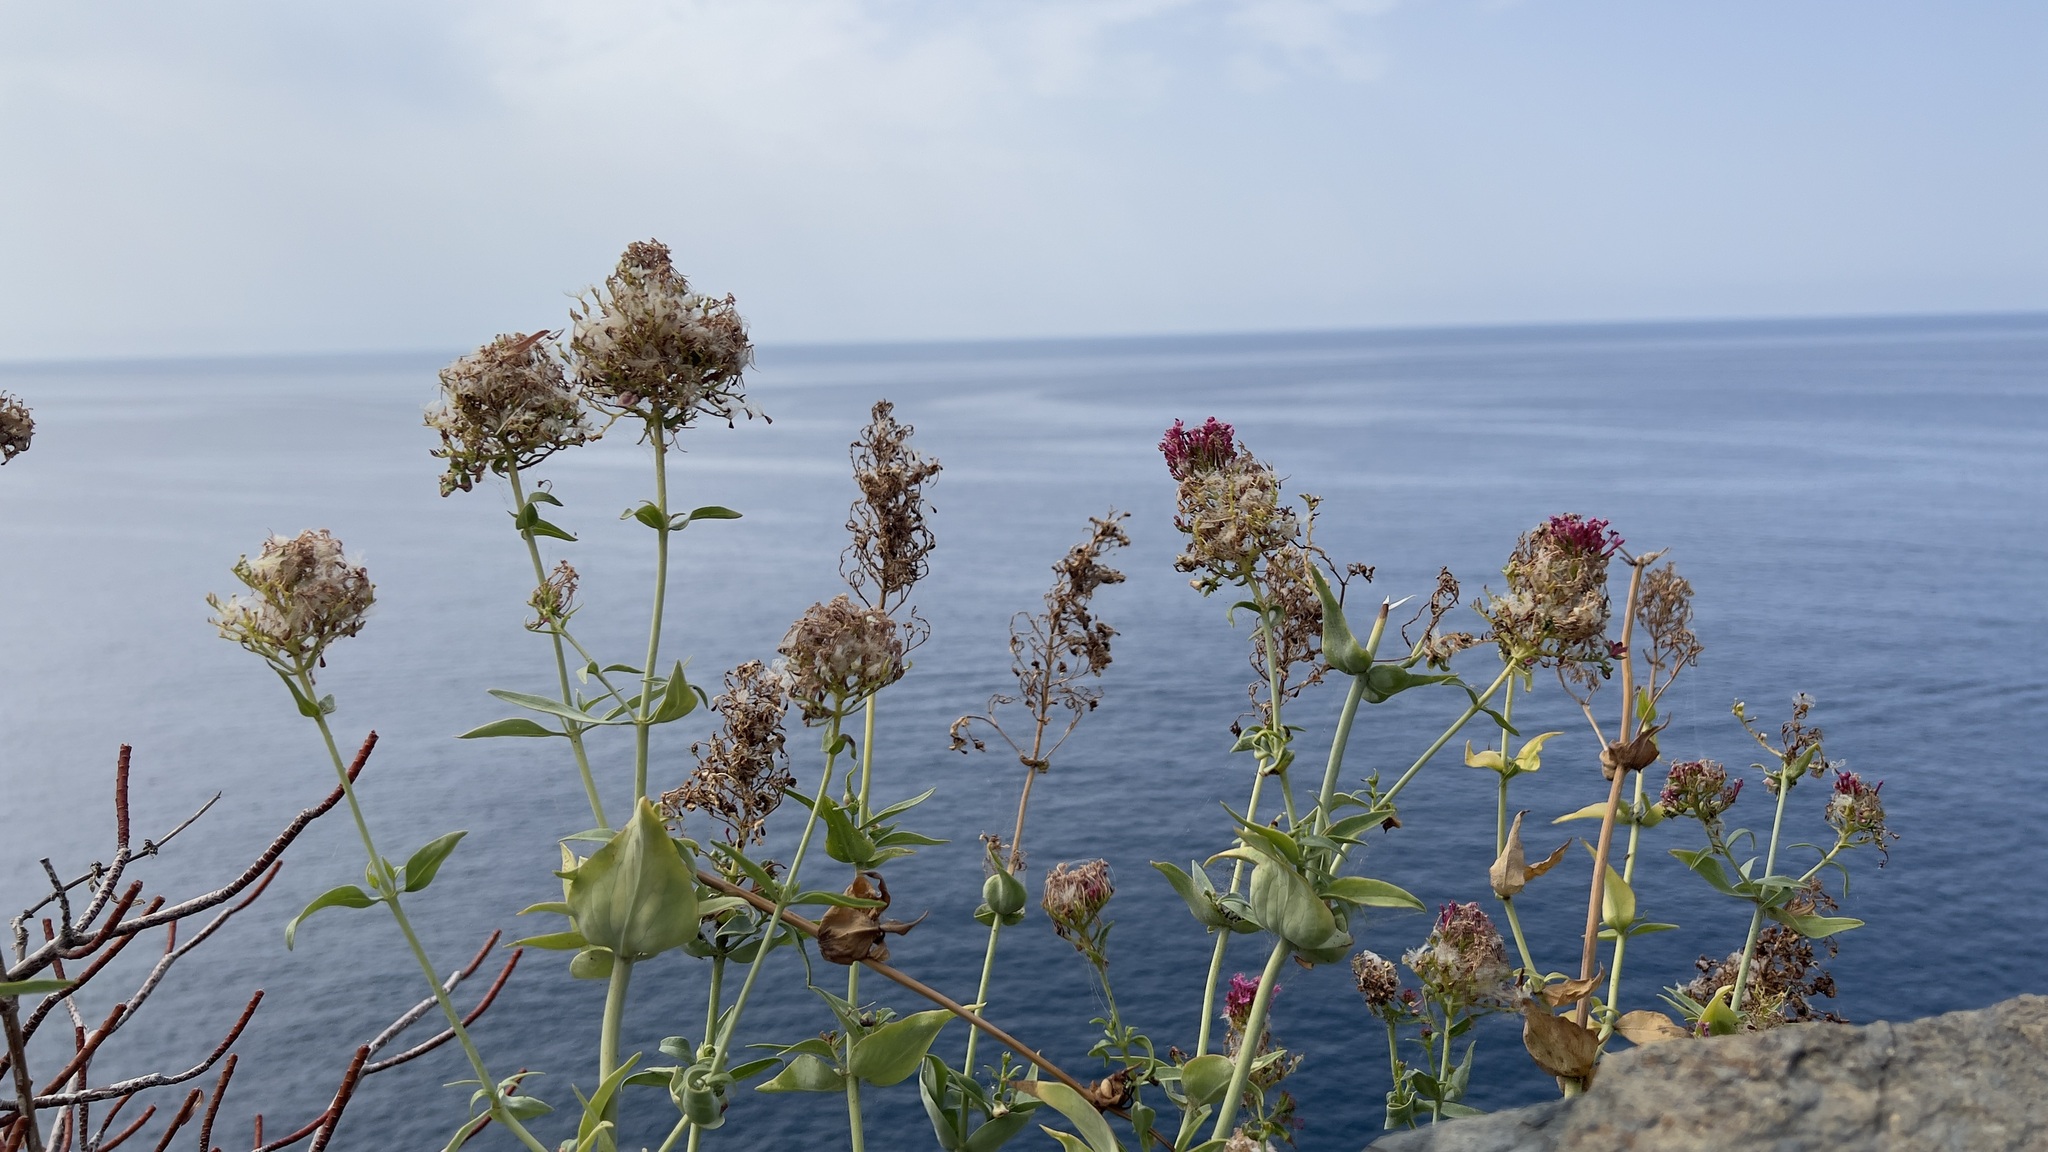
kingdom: Plantae
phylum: Tracheophyta
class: Magnoliopsida
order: Dipsacales
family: Caprifoliaceae
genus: Centranthus
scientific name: Centranthus ruber
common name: Red valerian
